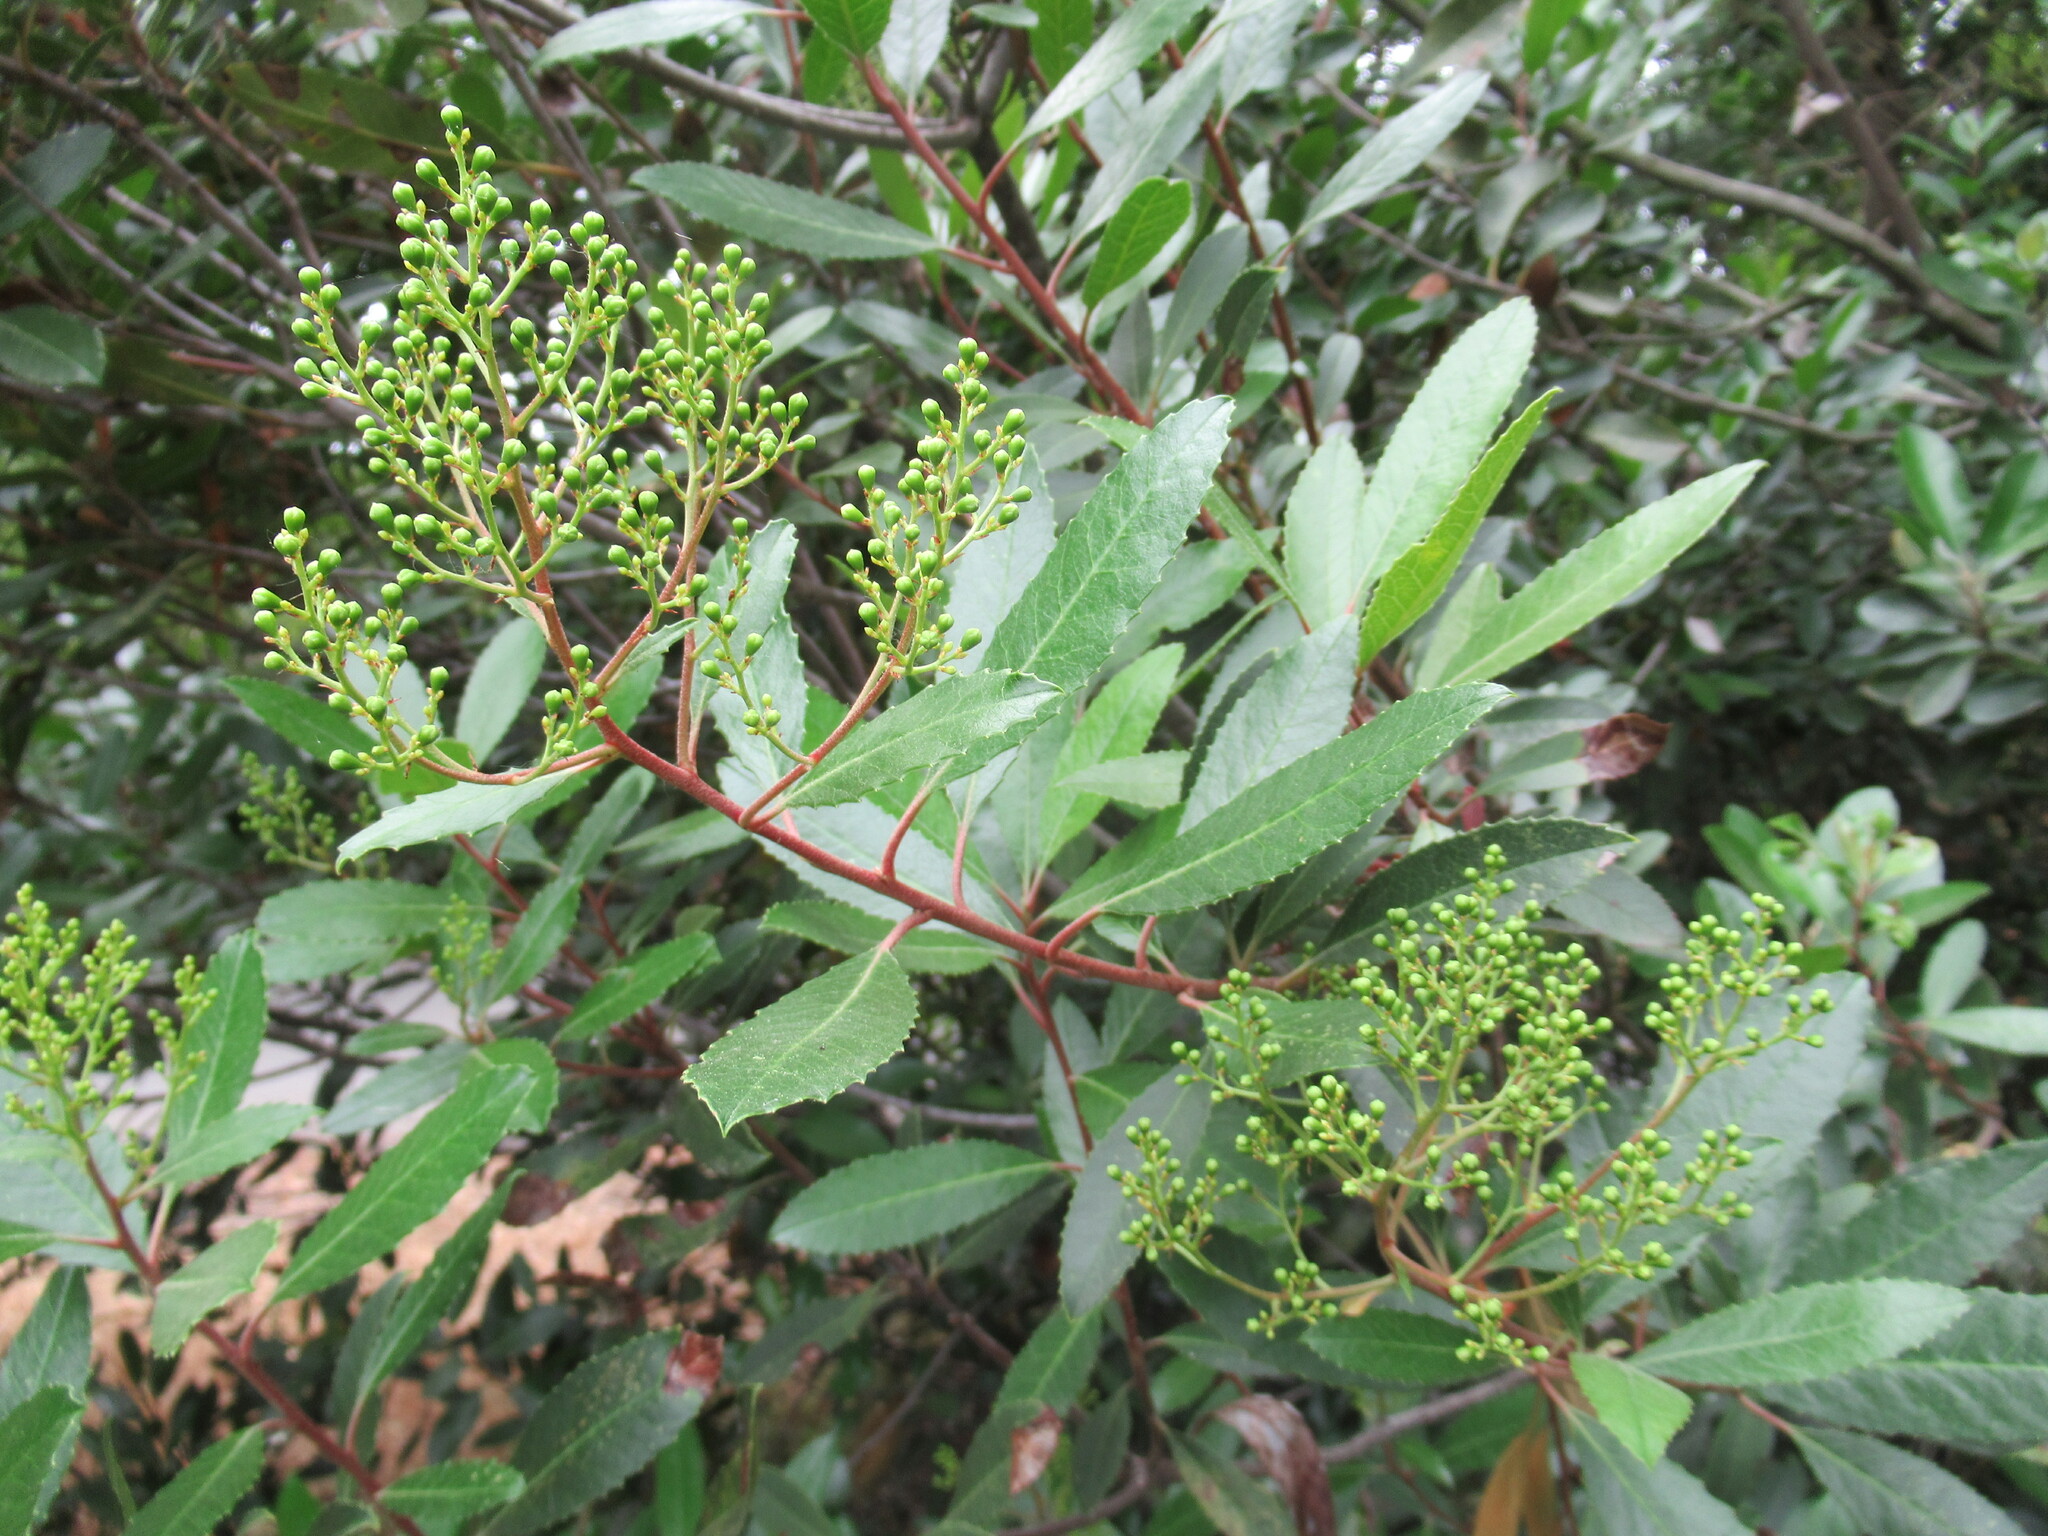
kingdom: Plantae
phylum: Tracheophyta
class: Magnoliopsida
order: Rosales
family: Rosaceae
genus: Heteromeles
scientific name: Heteromeles arbutifolia
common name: California-holly
